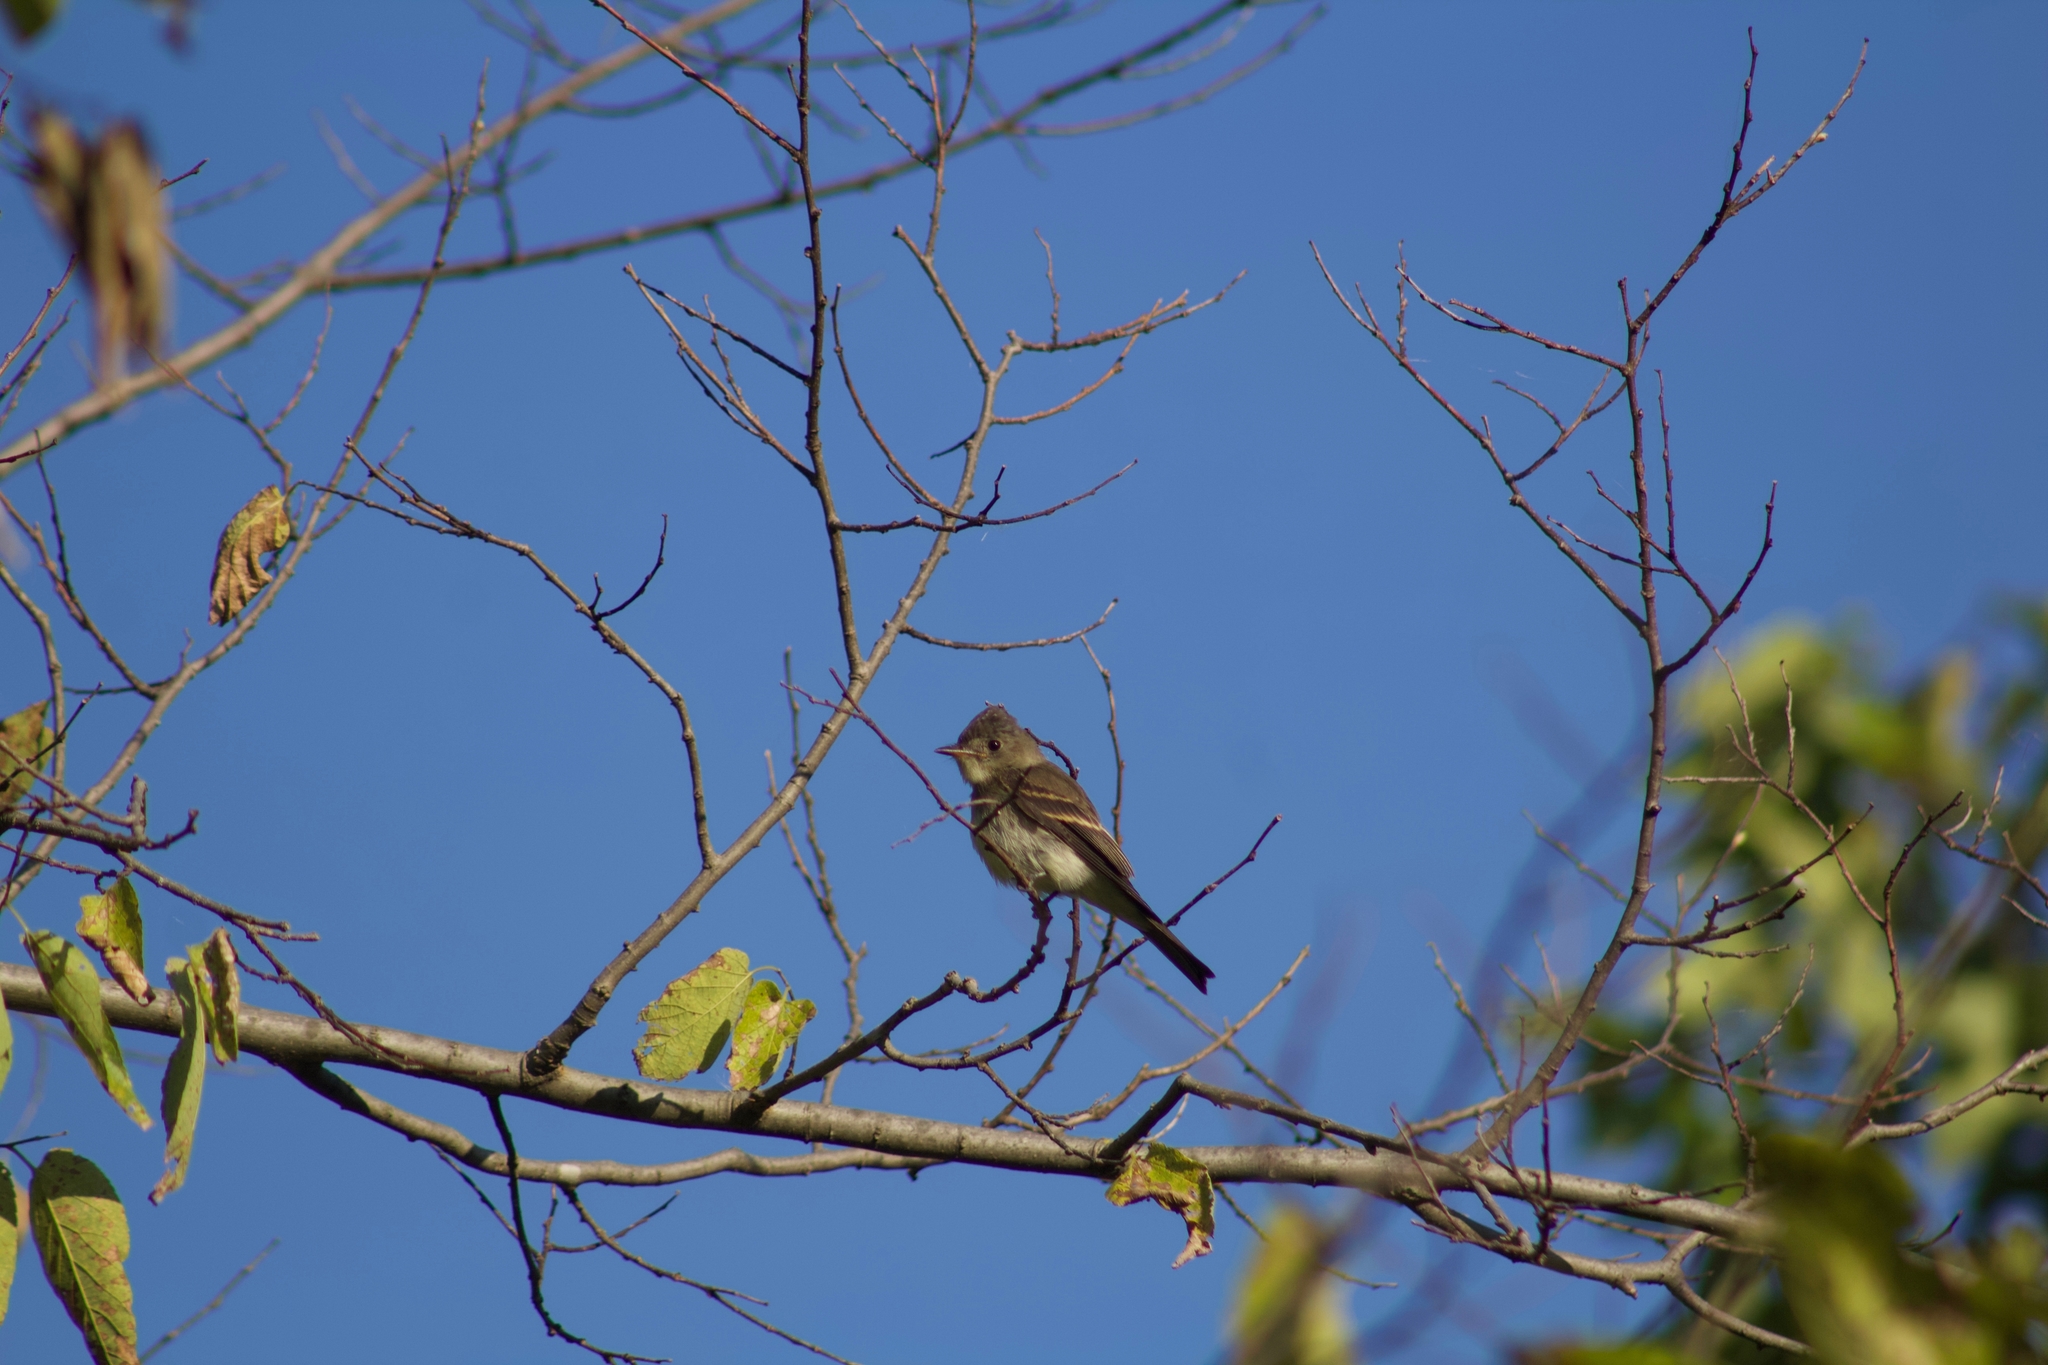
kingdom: Animalia
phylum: Chordata
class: Aves
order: Passeriformes
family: Tyrannidae
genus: Contopus
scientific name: Contopus virens
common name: Eastern wood-pewee
